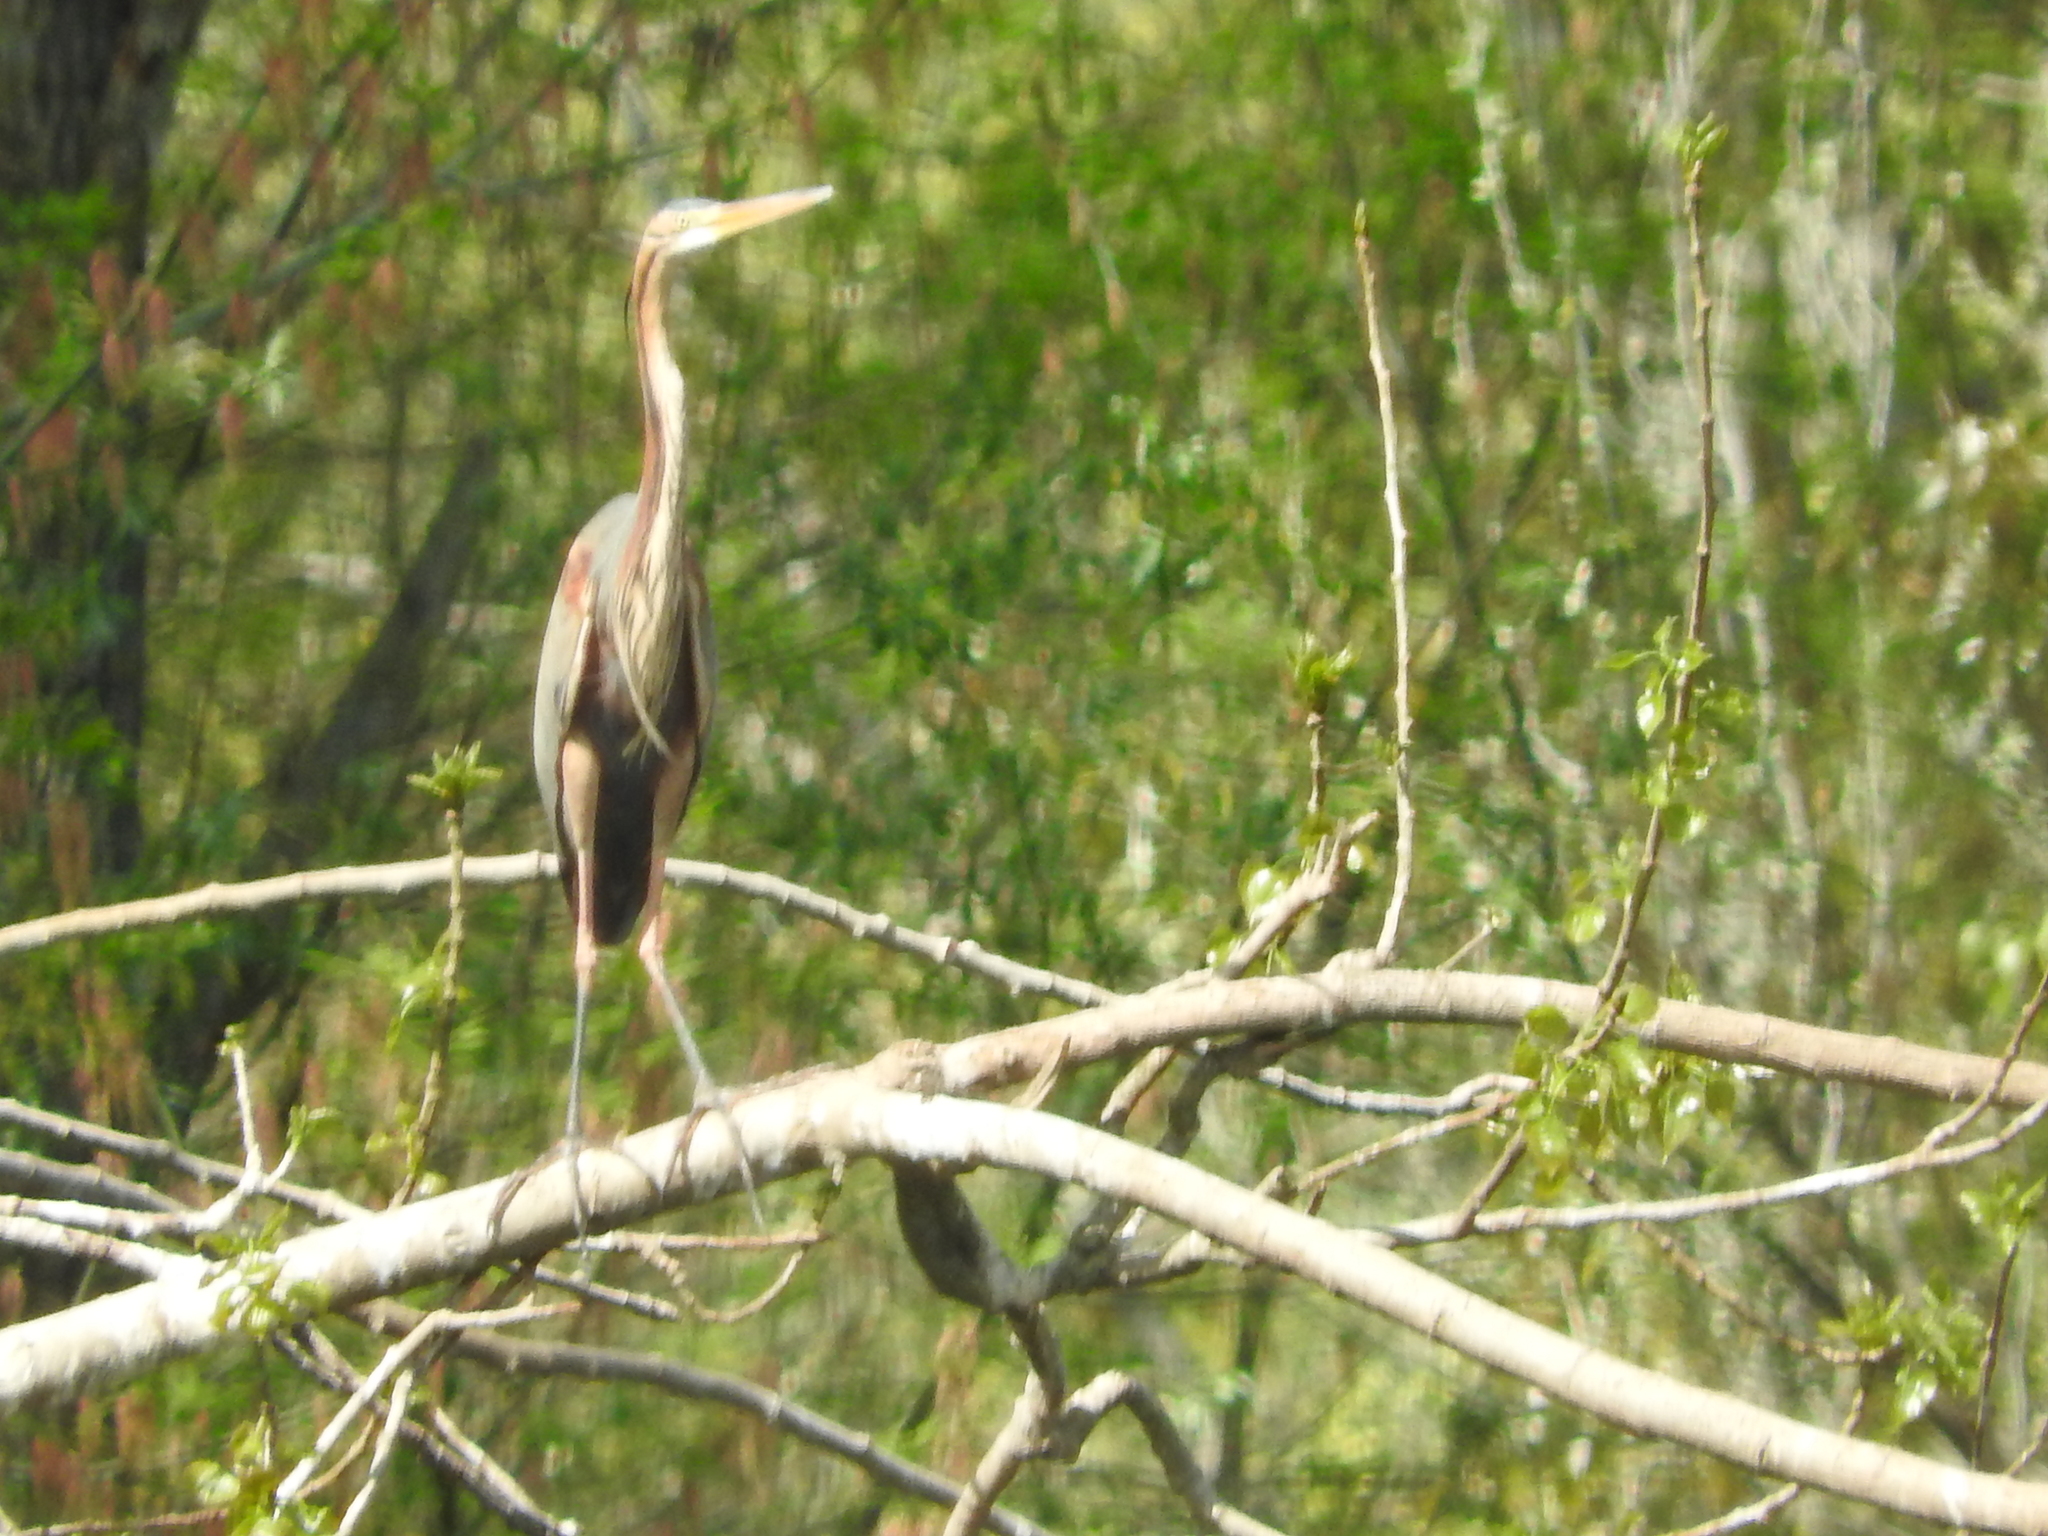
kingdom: Animalia
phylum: Chordata
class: Aves
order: Pelecaniformes
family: Ardeidae
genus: Ardea
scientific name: Ardea purpurea
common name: Purple heron
